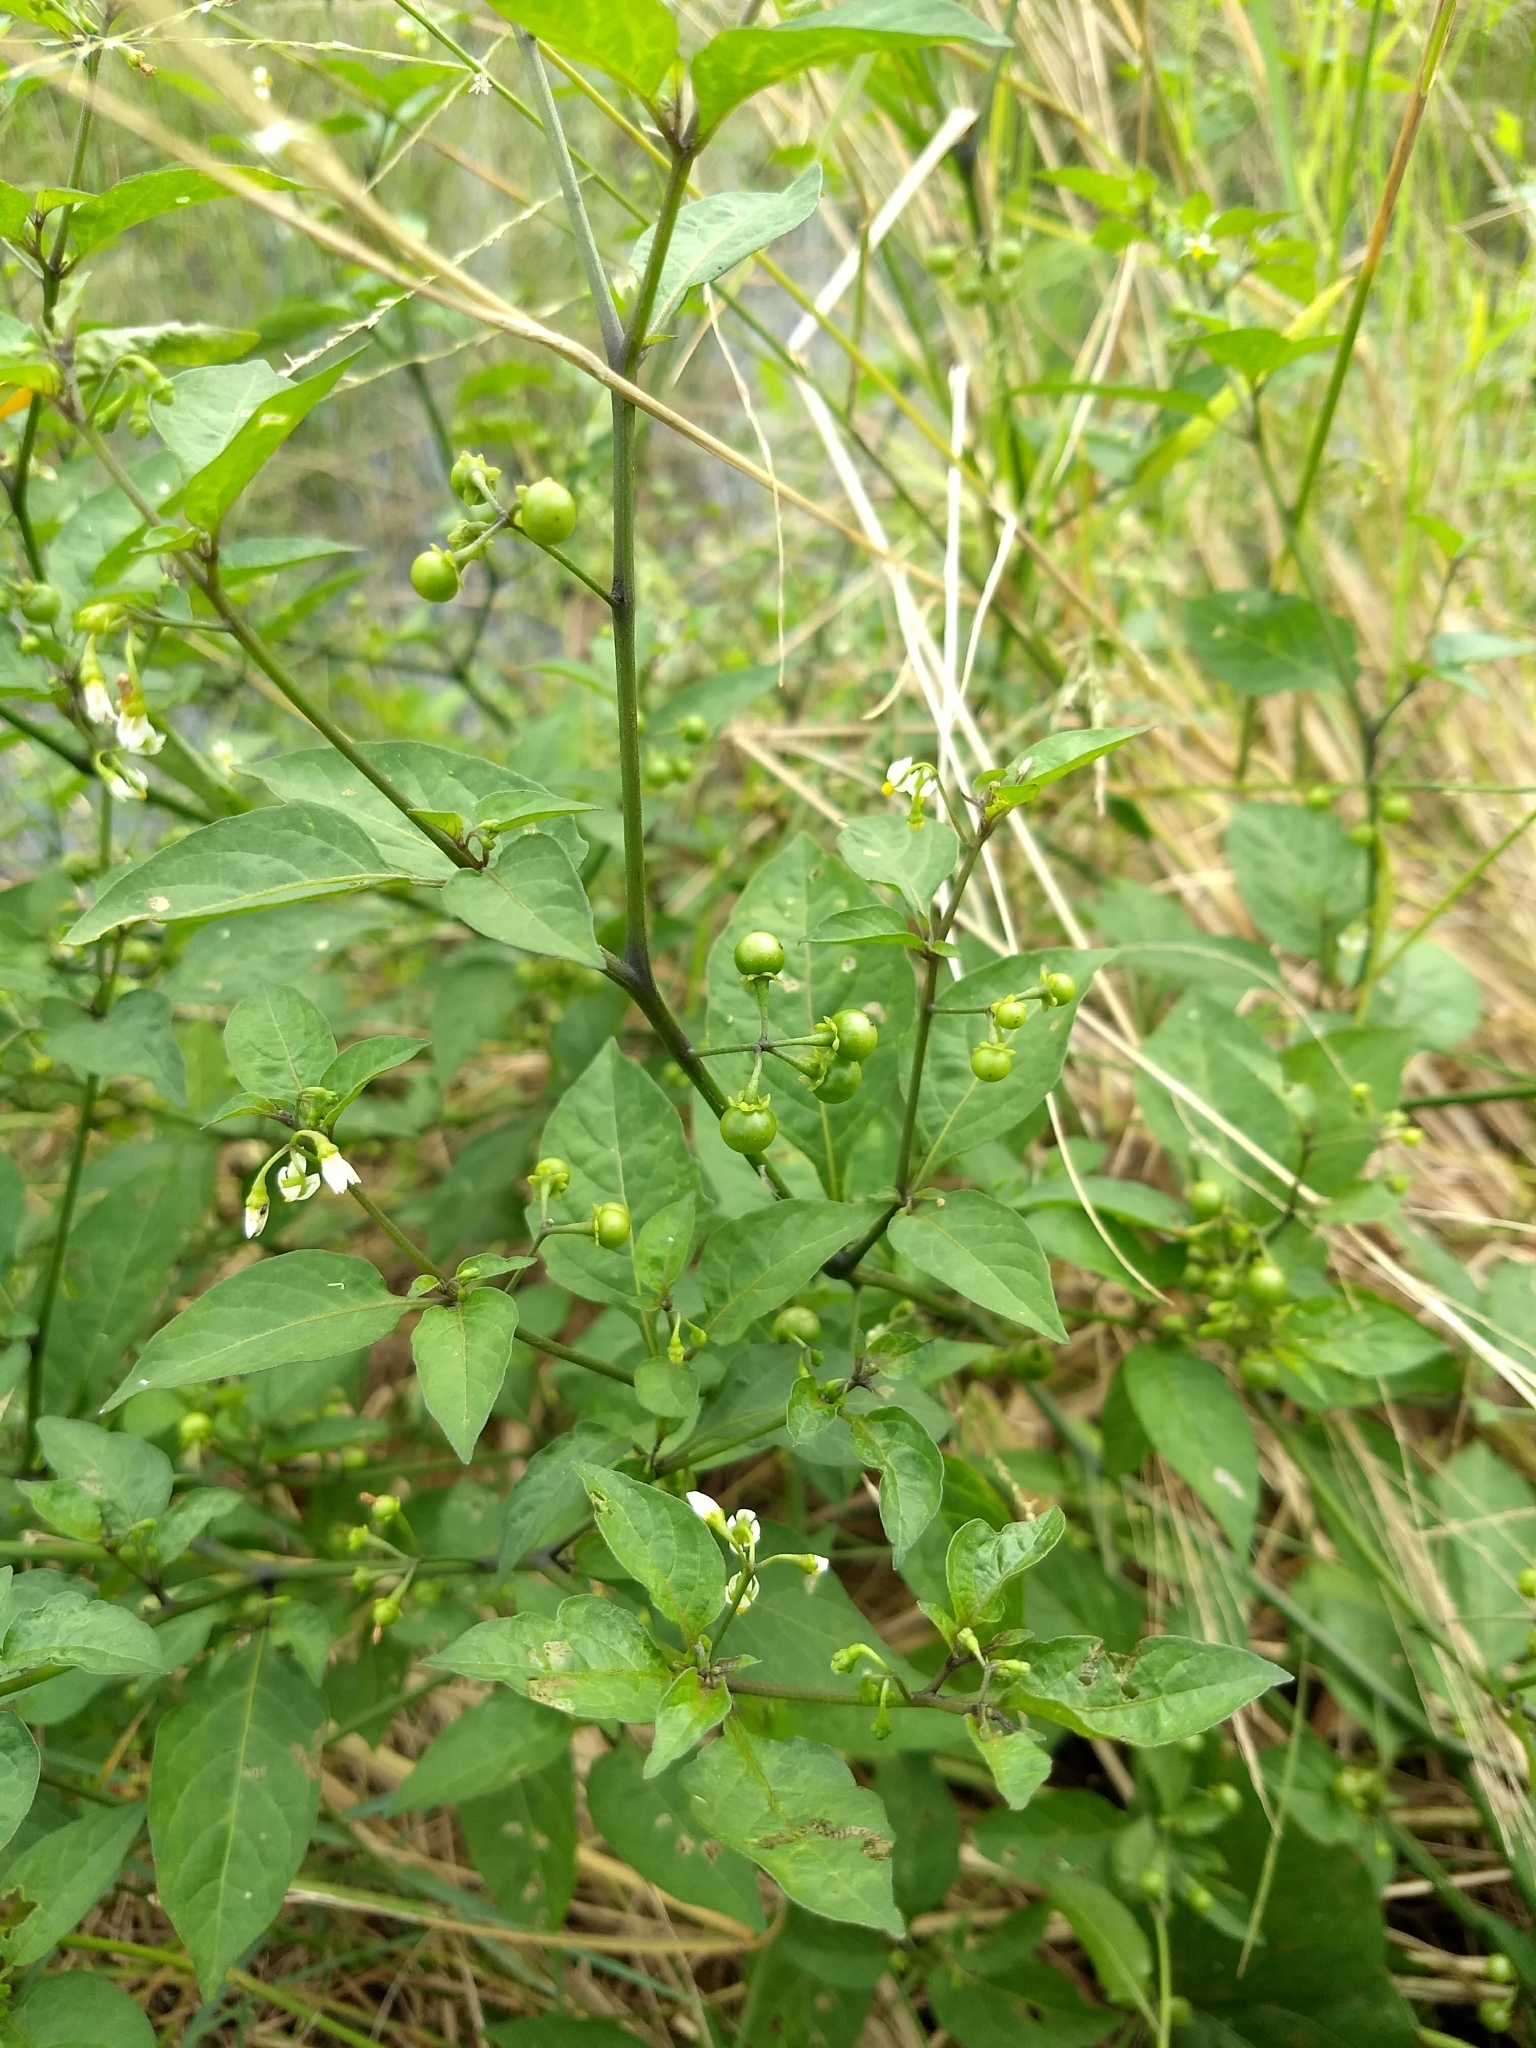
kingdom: Plantae
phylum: Tracheophyta
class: Magnoliopsida
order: Solanales
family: Solanaceae
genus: Solanum
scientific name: Solanum americanum
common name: American black nightshade
